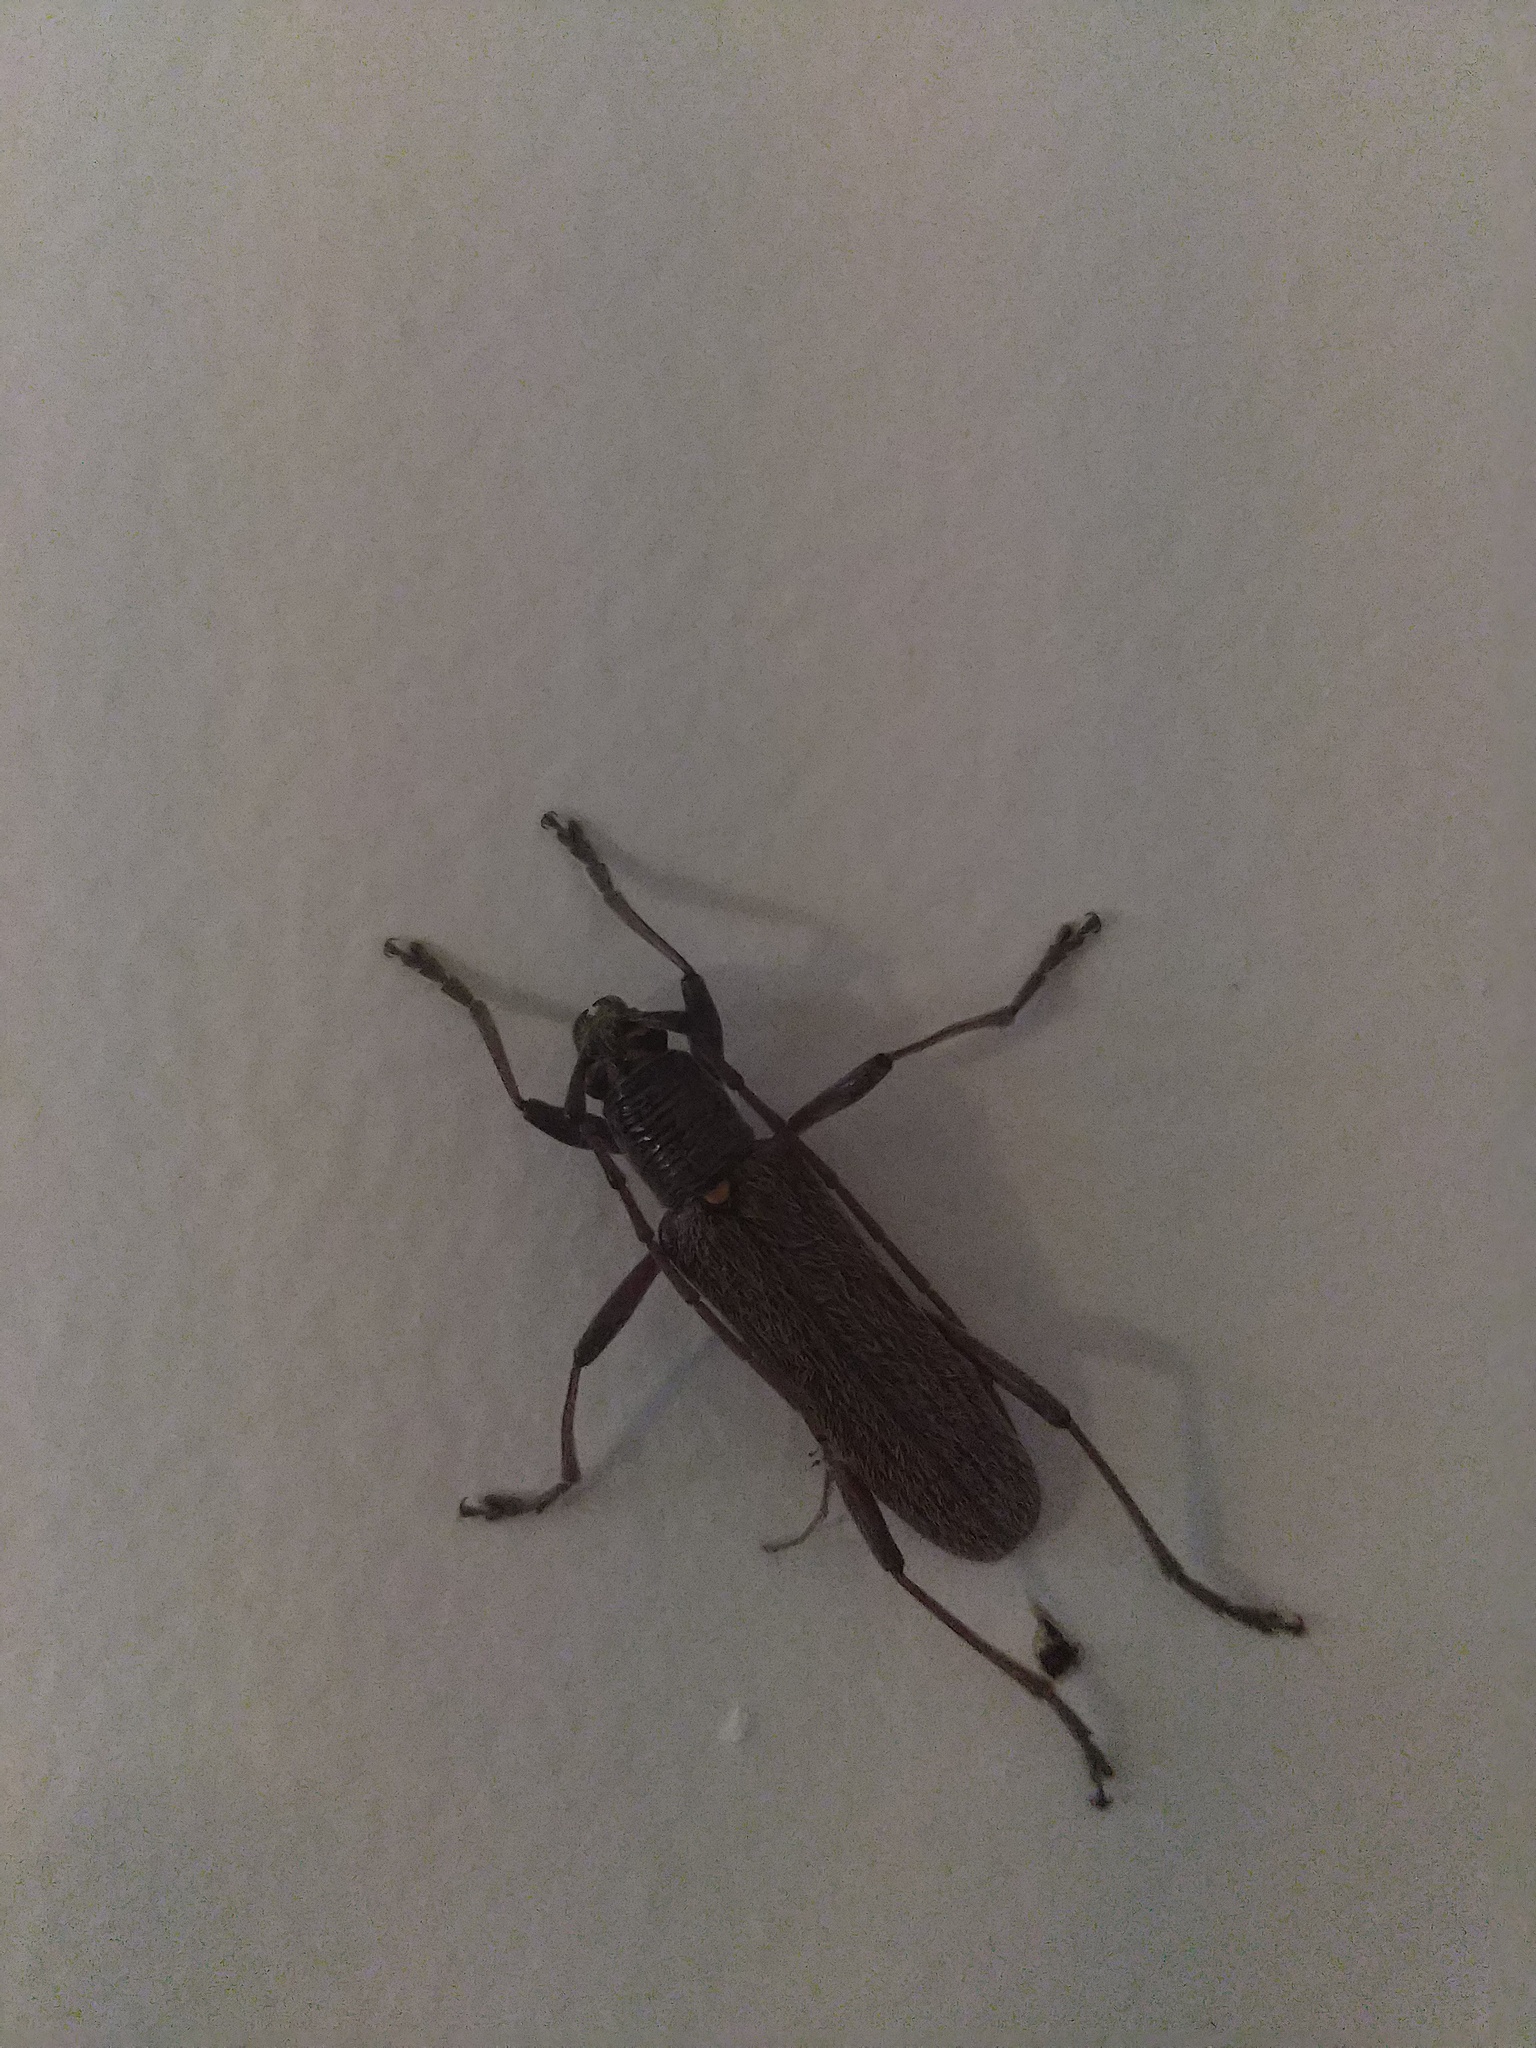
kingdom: Animalia
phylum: Arthropoda
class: Insecta
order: Coleoptera
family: Cerambycidae
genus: Oemona
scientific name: Oemona hirta
